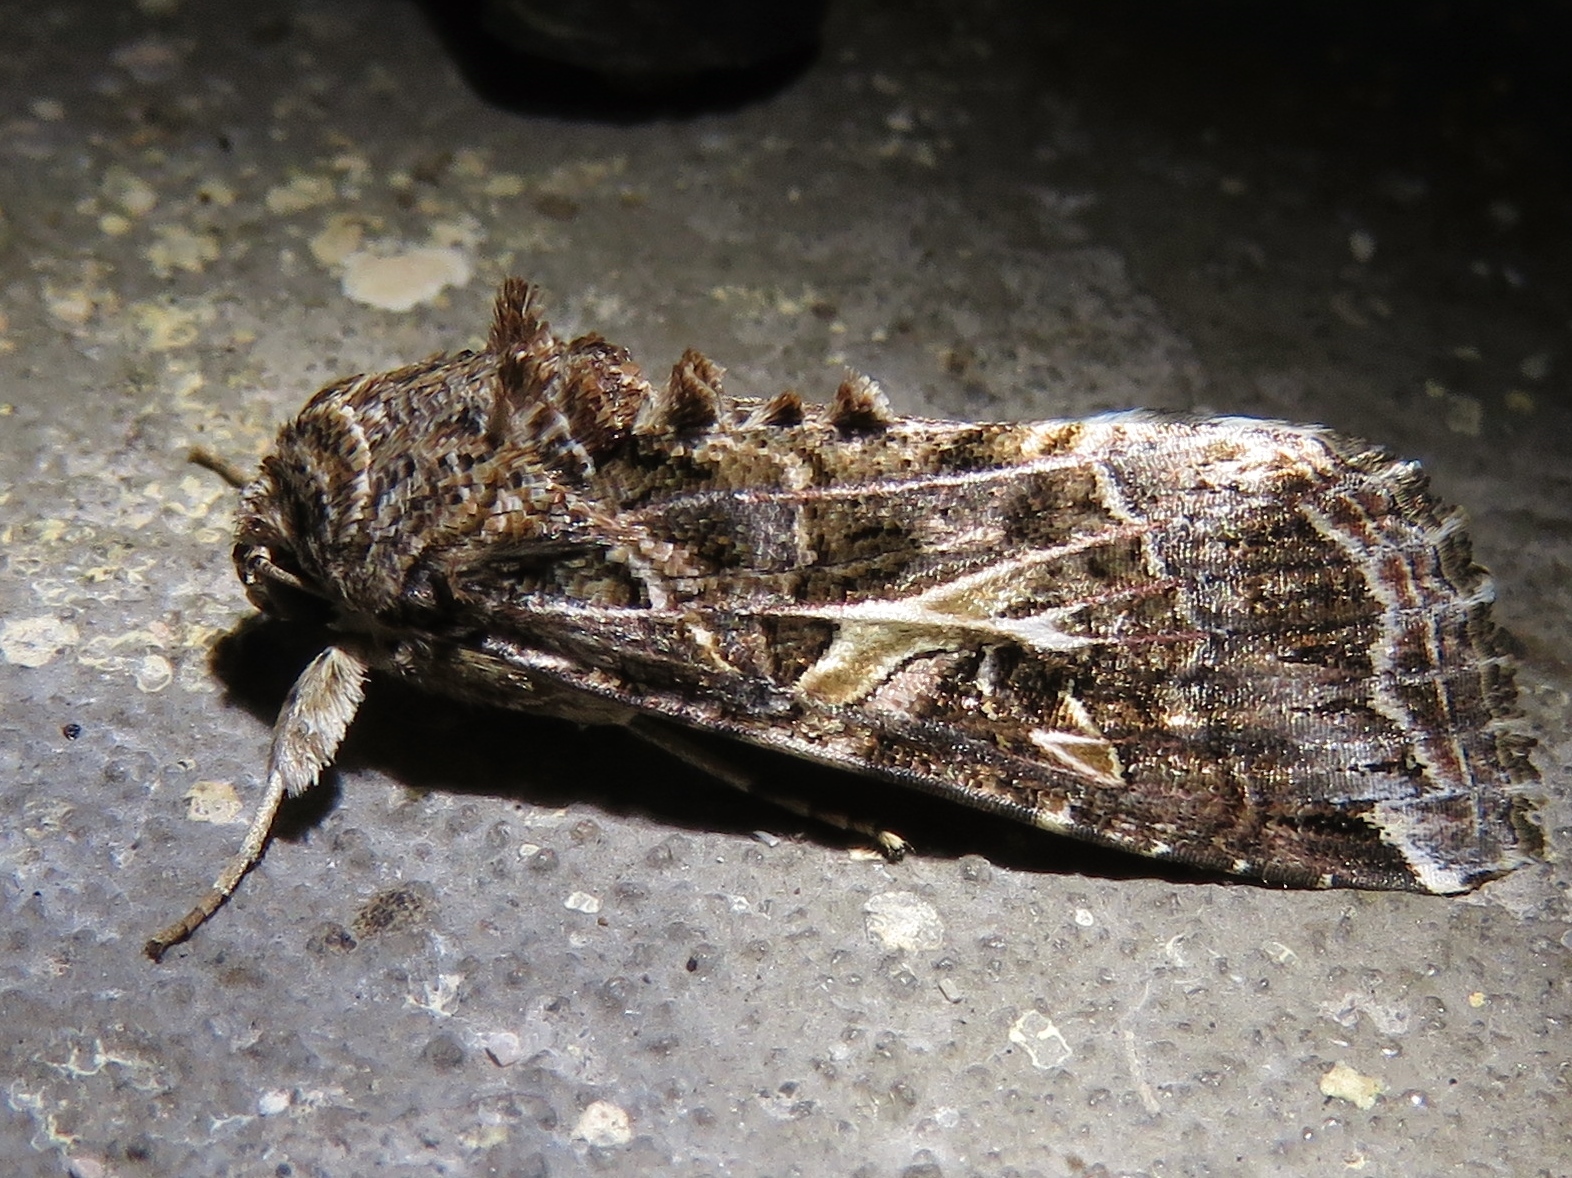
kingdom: Animalia
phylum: Arthropoda
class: Insecta
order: Lepidoptera
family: Noctuidae
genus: Spodoptera
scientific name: Spodoptera ornithogalli
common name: Yellow-striped armyworm
